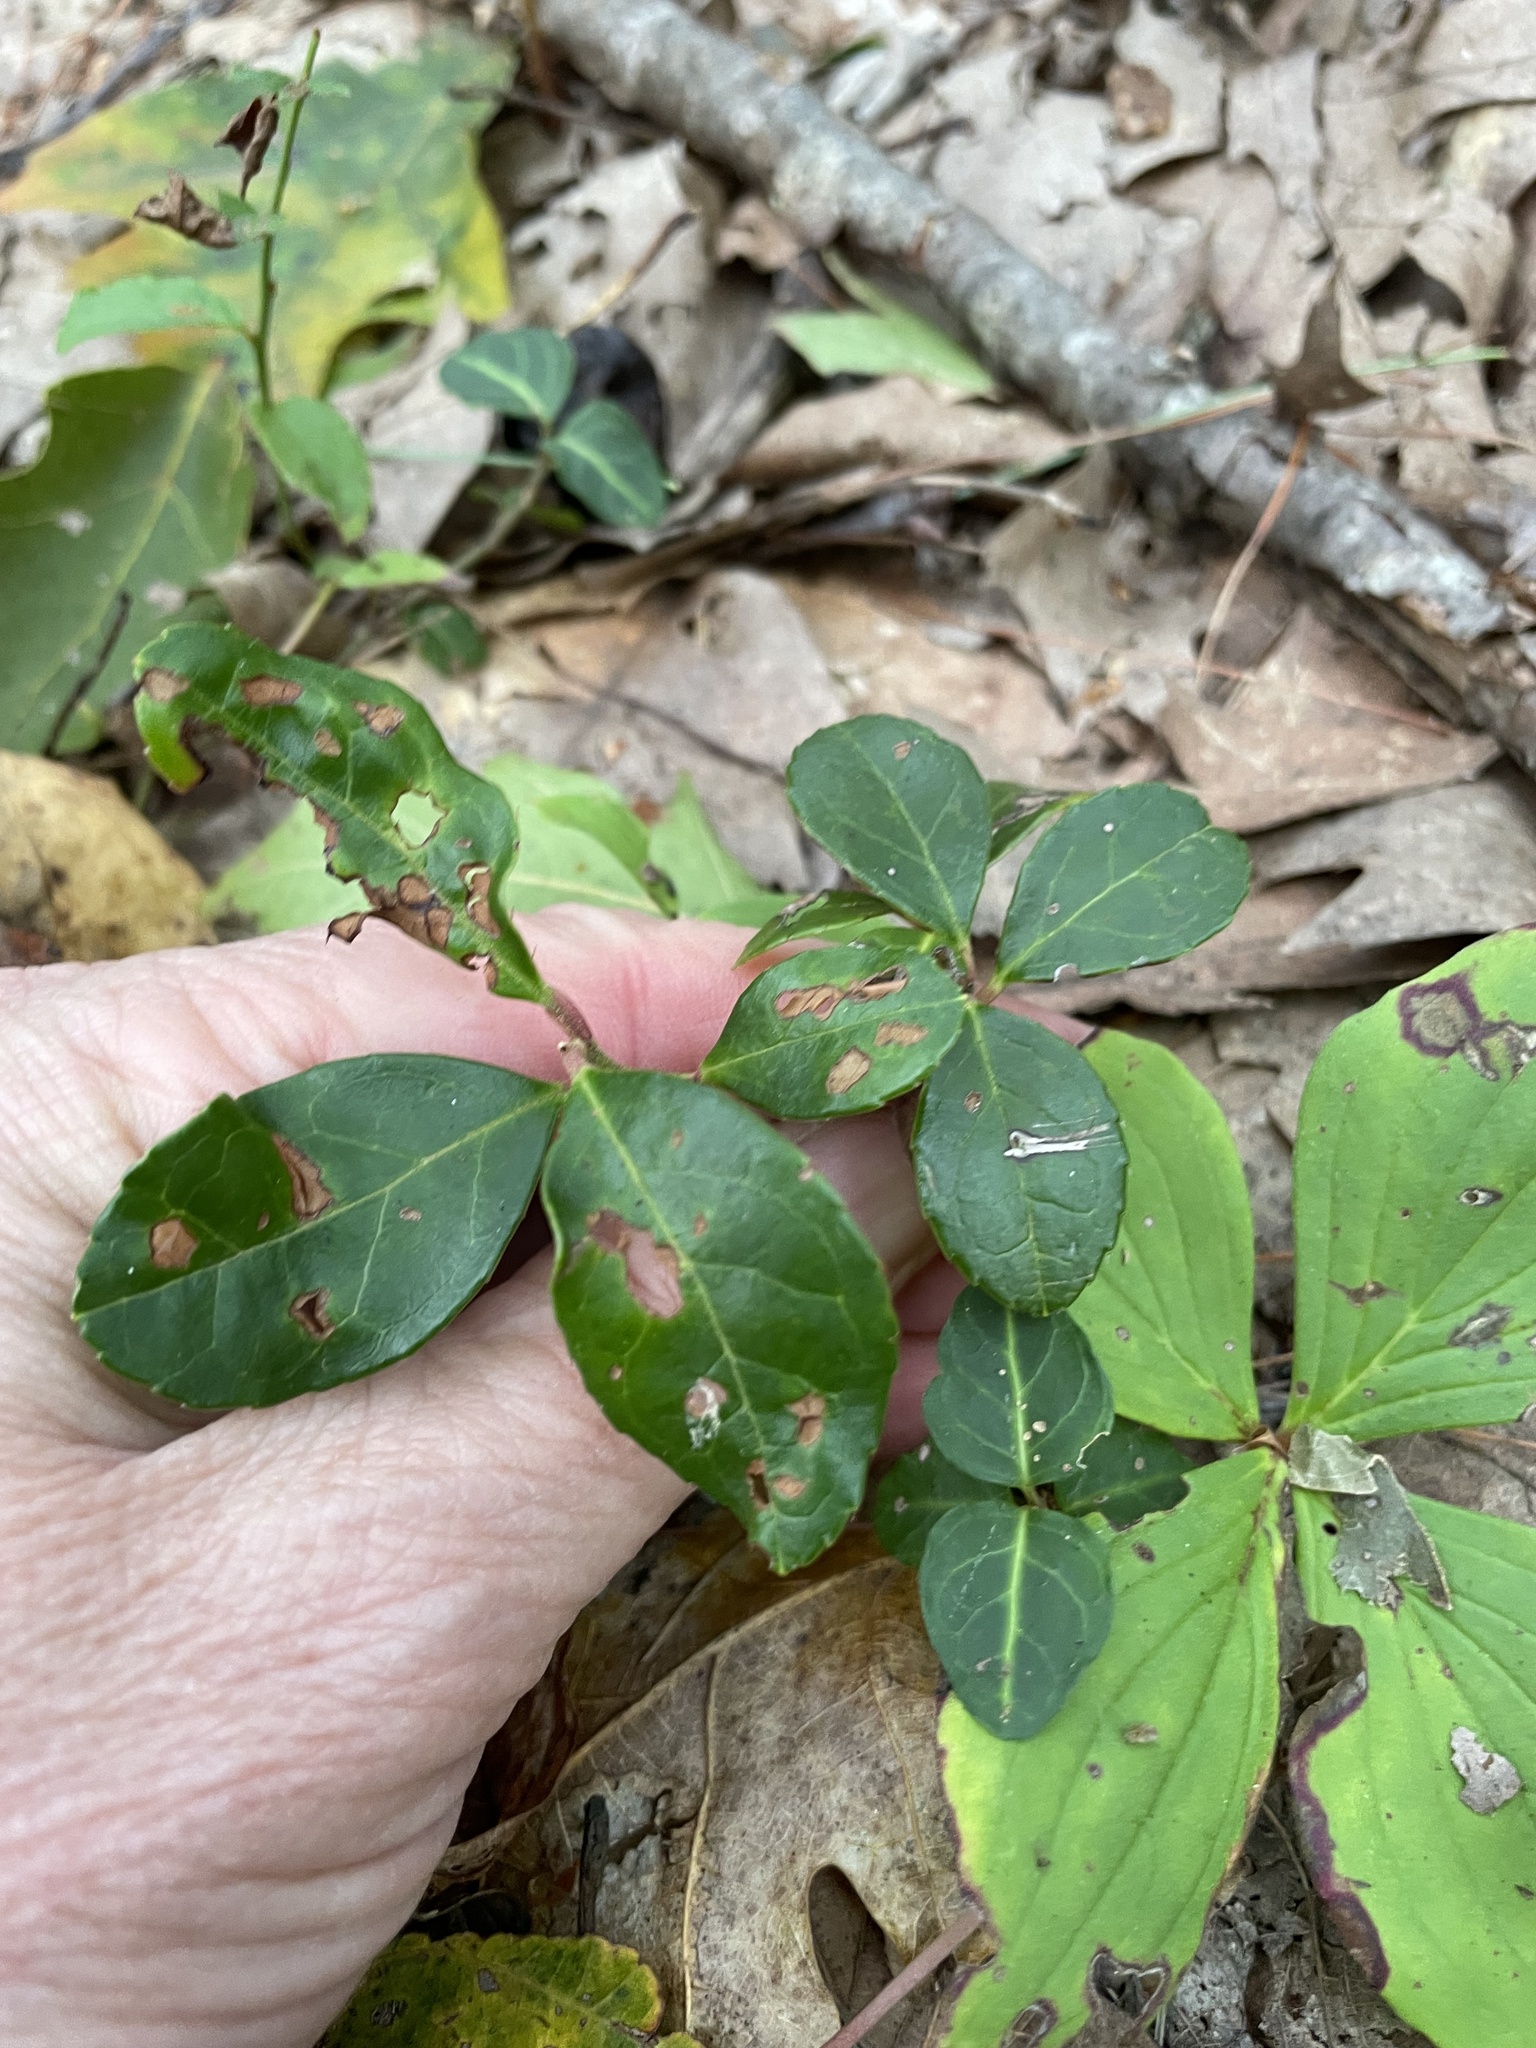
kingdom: Plantae
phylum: Tracheophyta
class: Magnoliopsida
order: Ericales
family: Ericaceae
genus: Gaultheria
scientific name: Gaultheria procumbens
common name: Checkerberry
